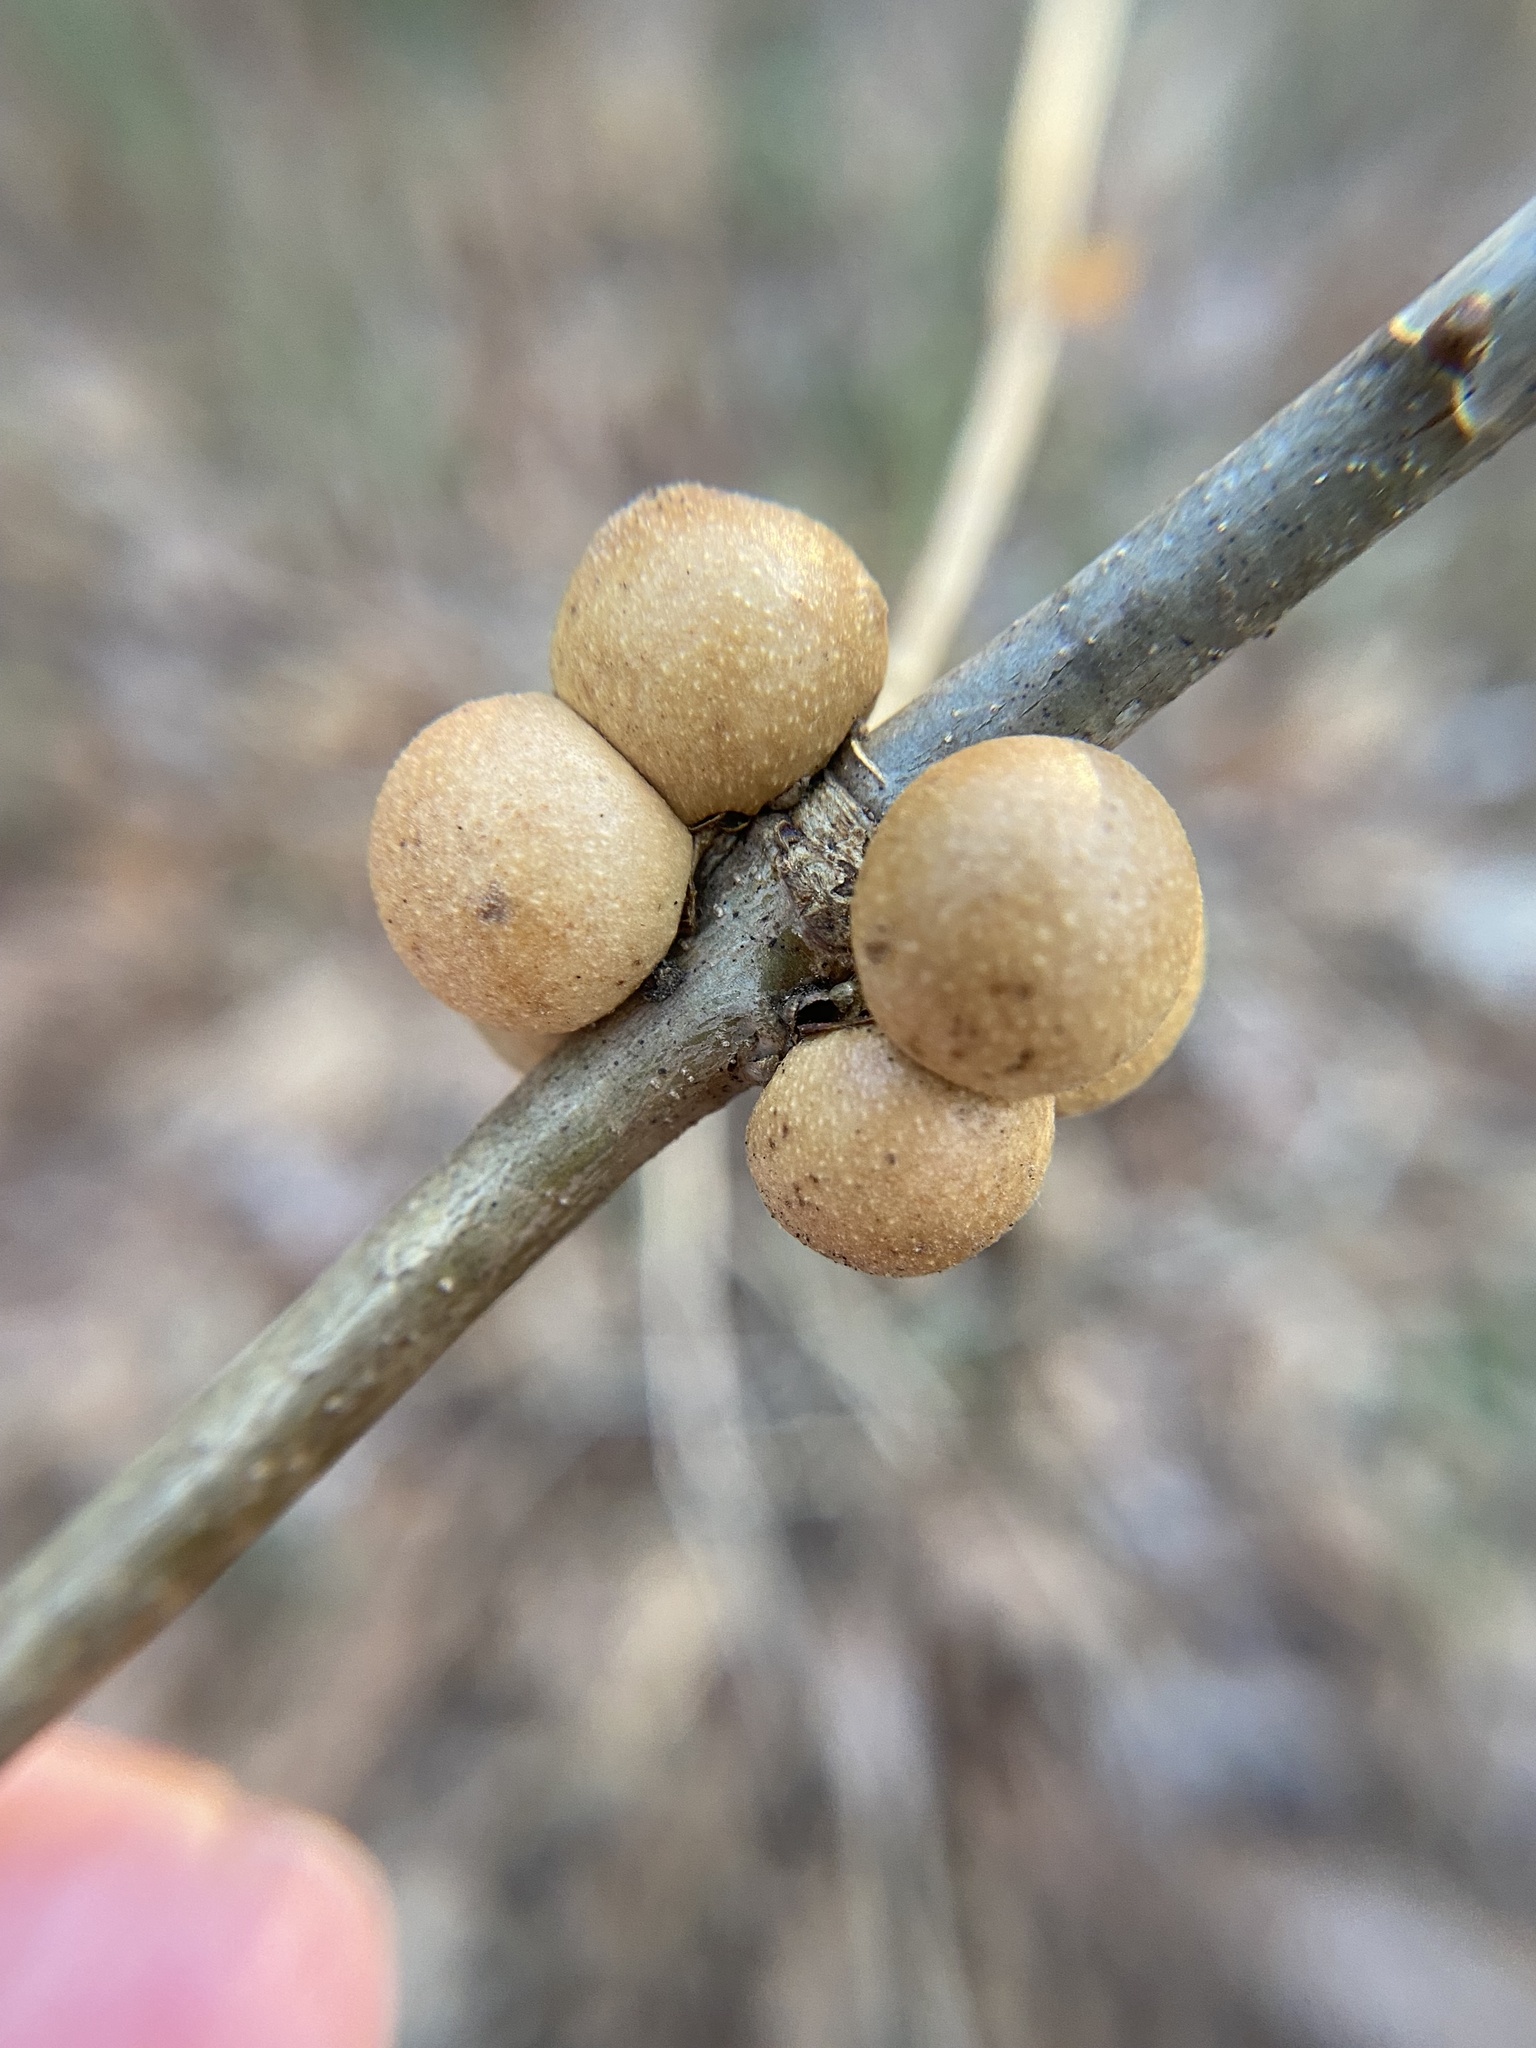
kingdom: Animalia
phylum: Arthropoda
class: Insecta
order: Hymenoptera
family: Cynipidae
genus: Disholcaspis
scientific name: Disholcaspis quercusglobulus
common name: Round bullet gall wasp
